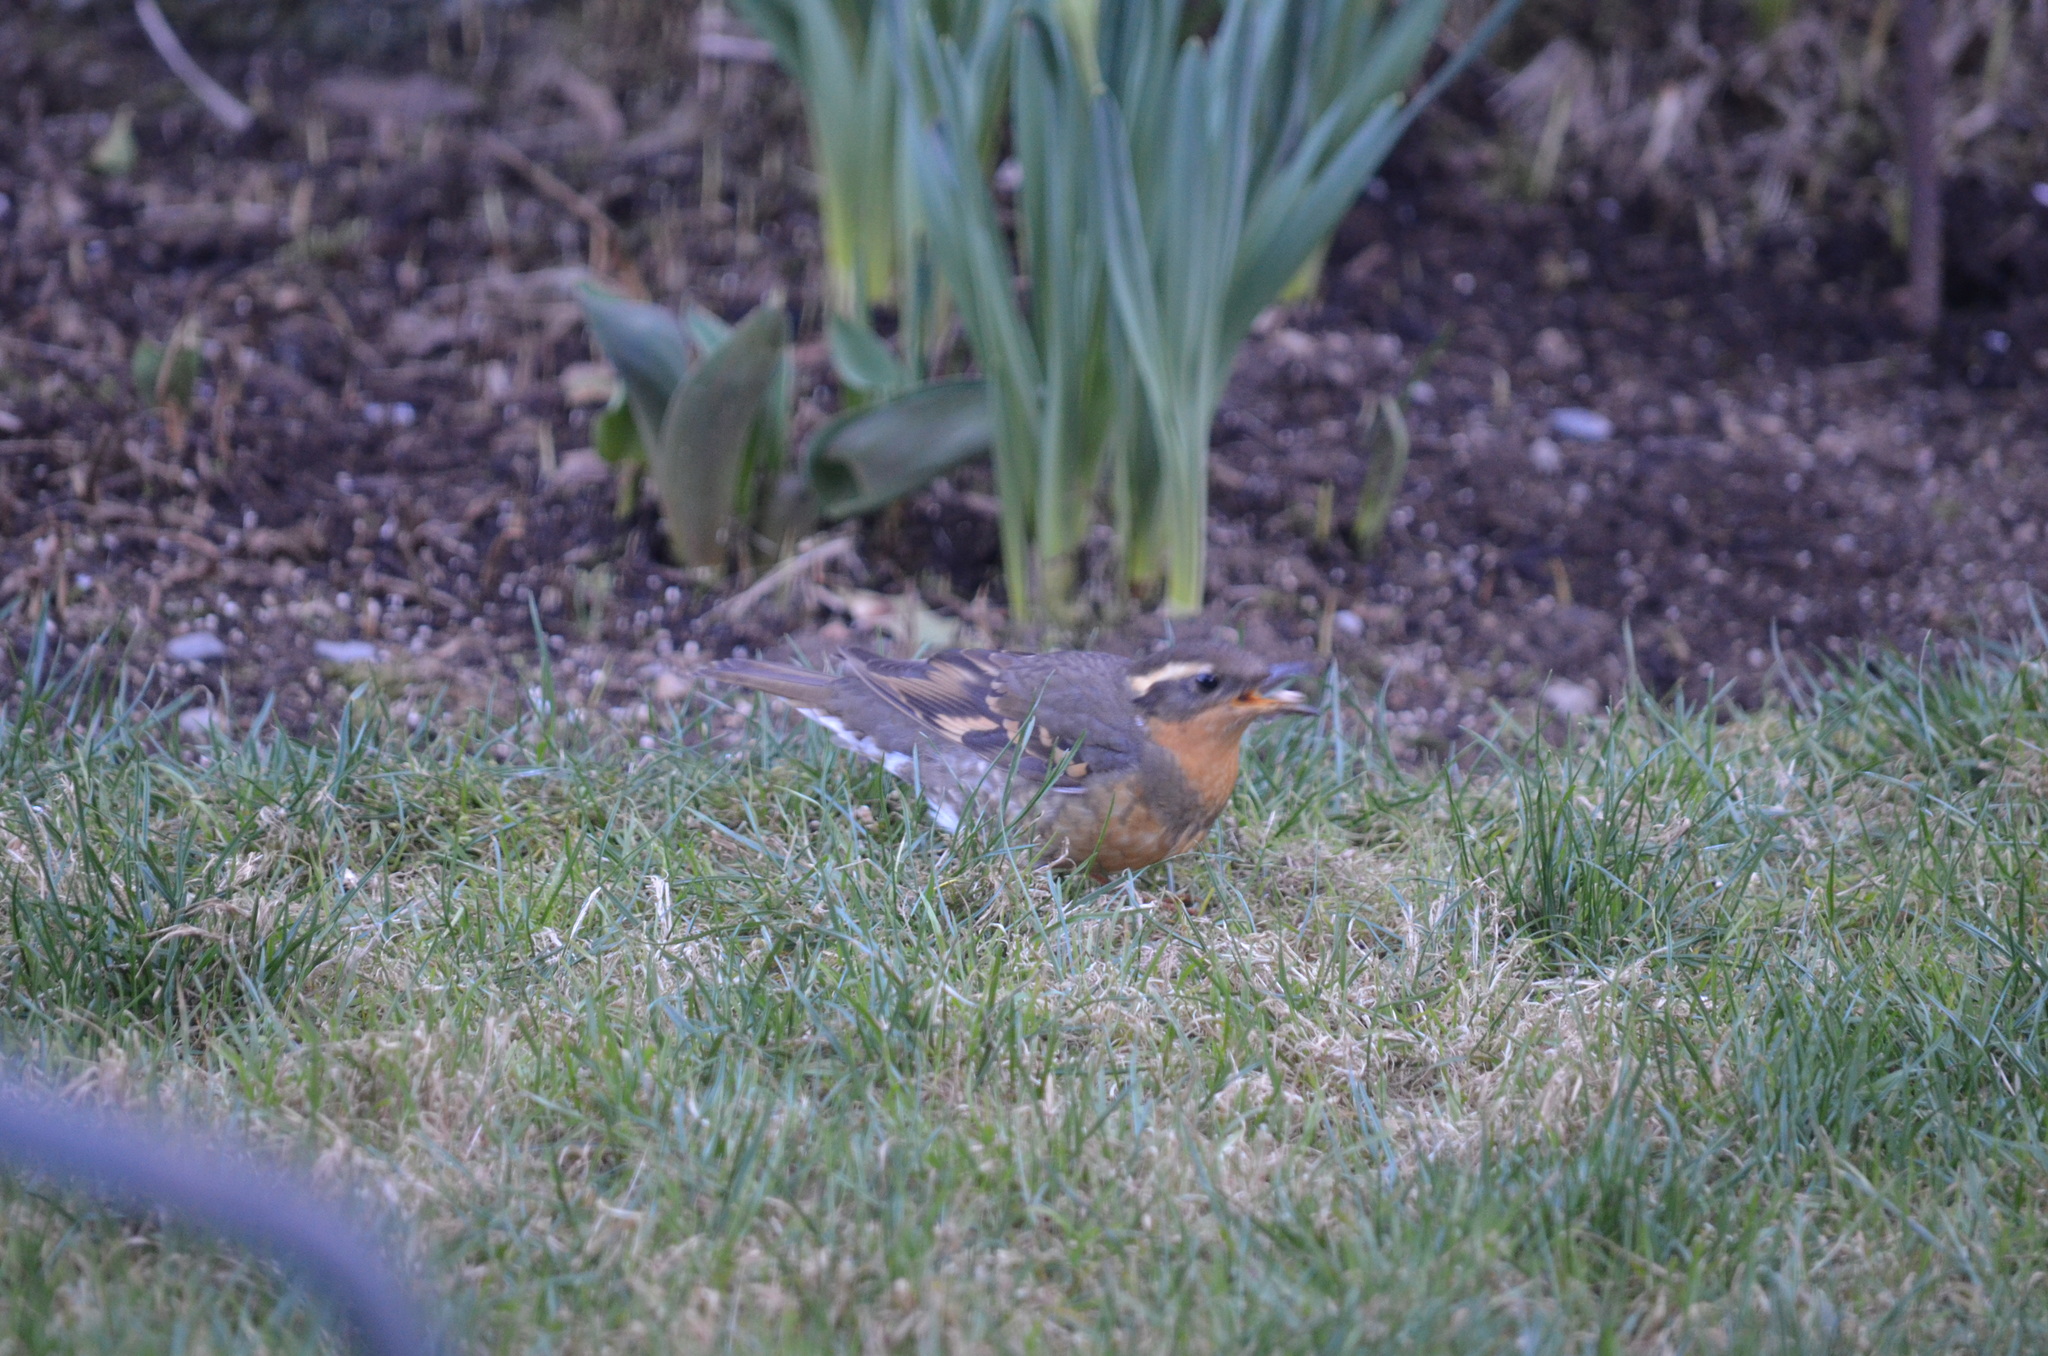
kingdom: Animalia
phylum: Chordata
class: Aves
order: Passeriformes
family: Turdidae
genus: Ixoreus
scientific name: Ixoreus naevius
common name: Varied thrush
